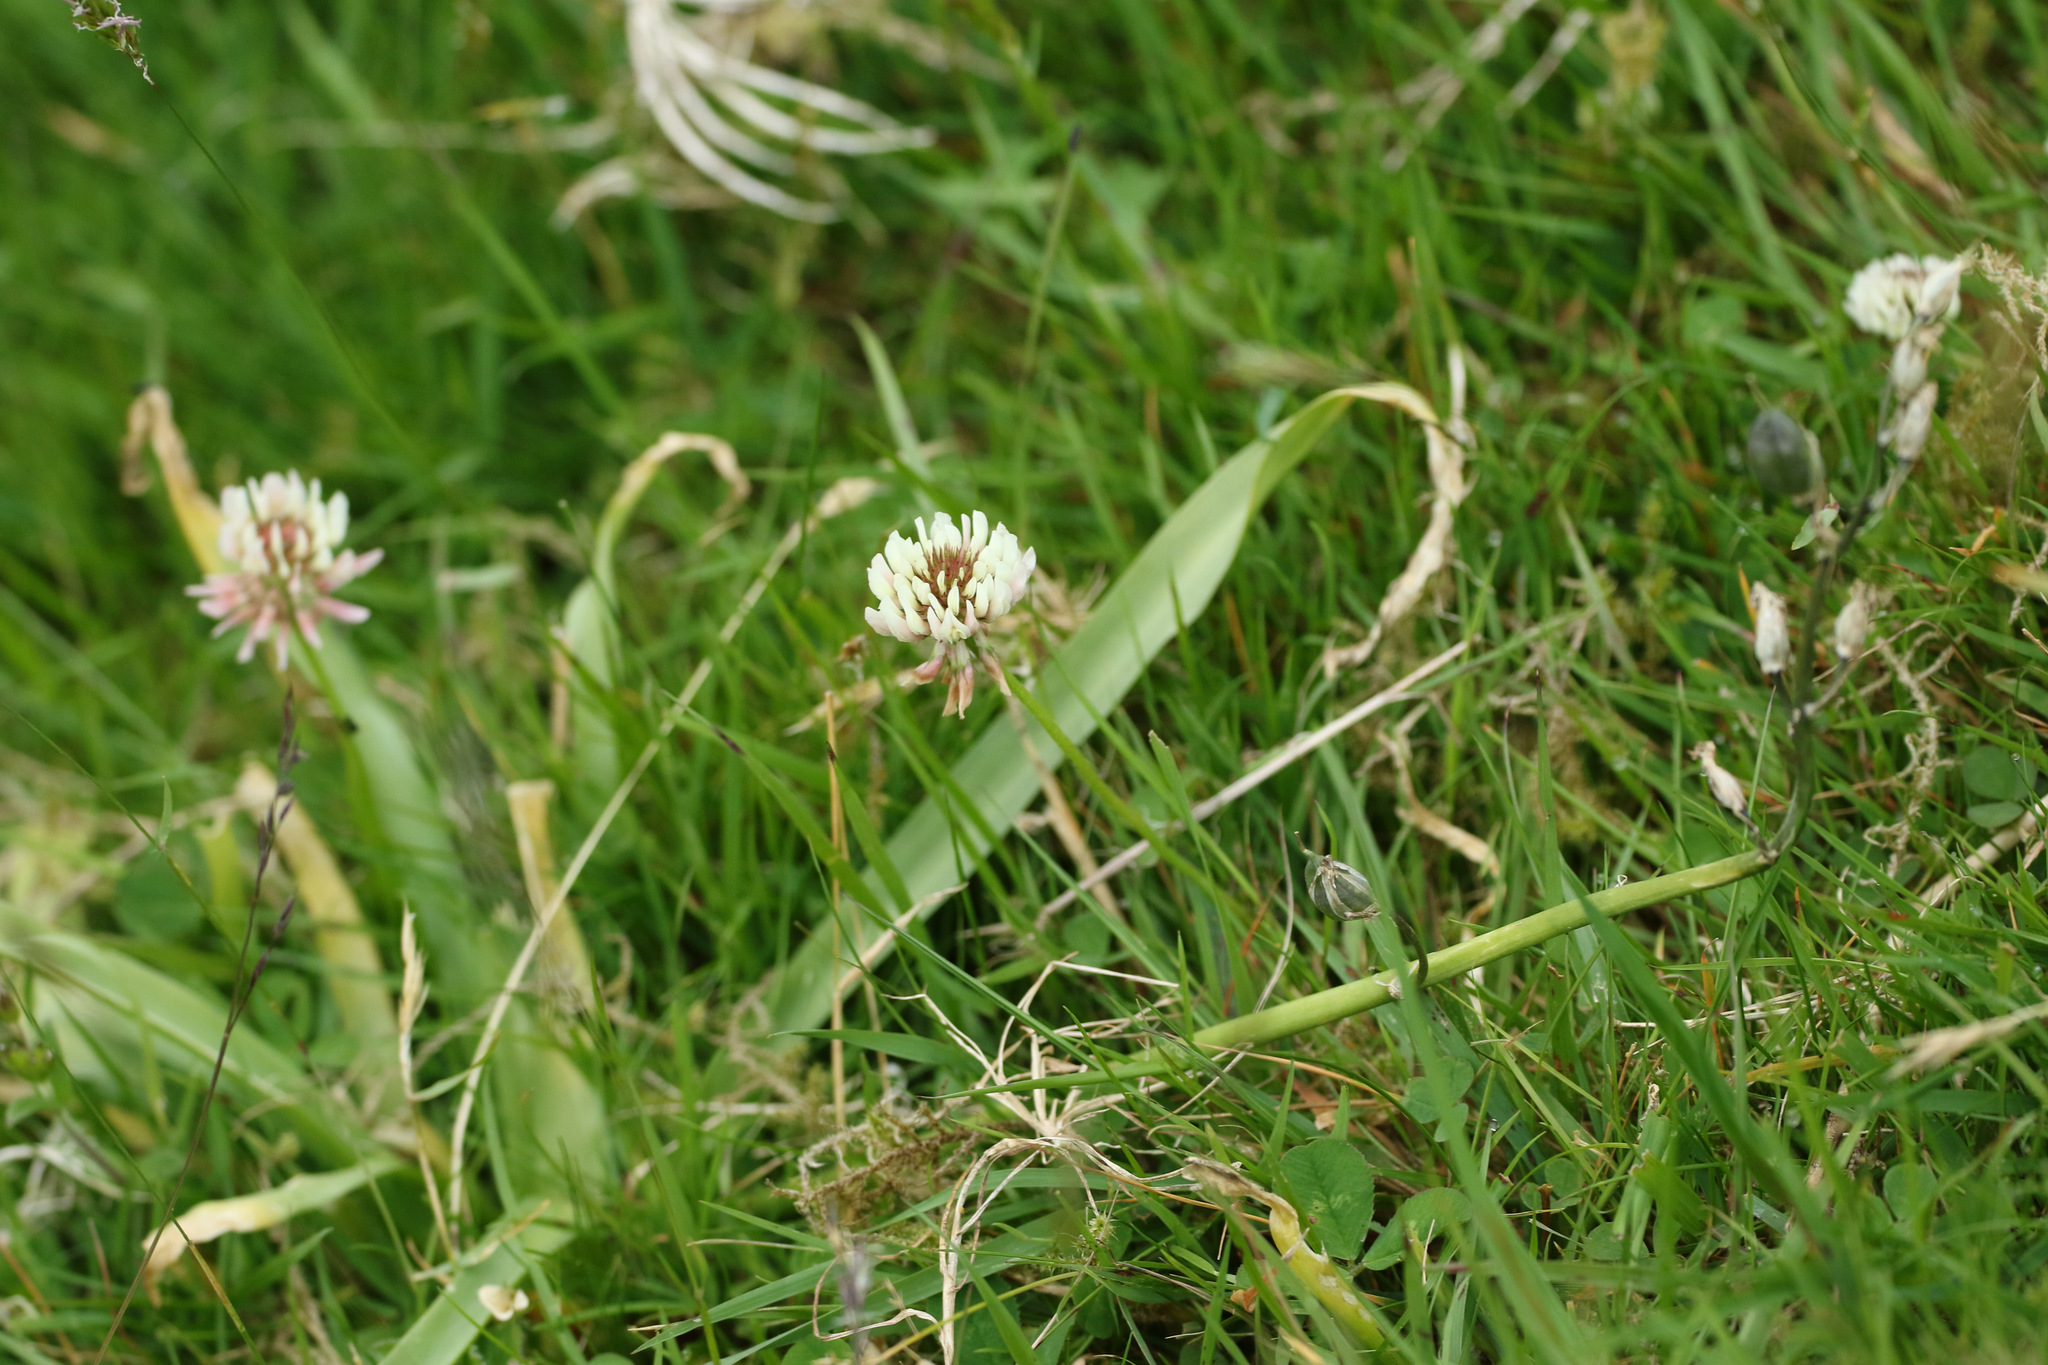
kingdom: Plantae
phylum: Tracheophyta
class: Magnoliopsida
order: Fabales
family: Fabaceae
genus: Trifolium
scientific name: Trifolium repens
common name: White clover
